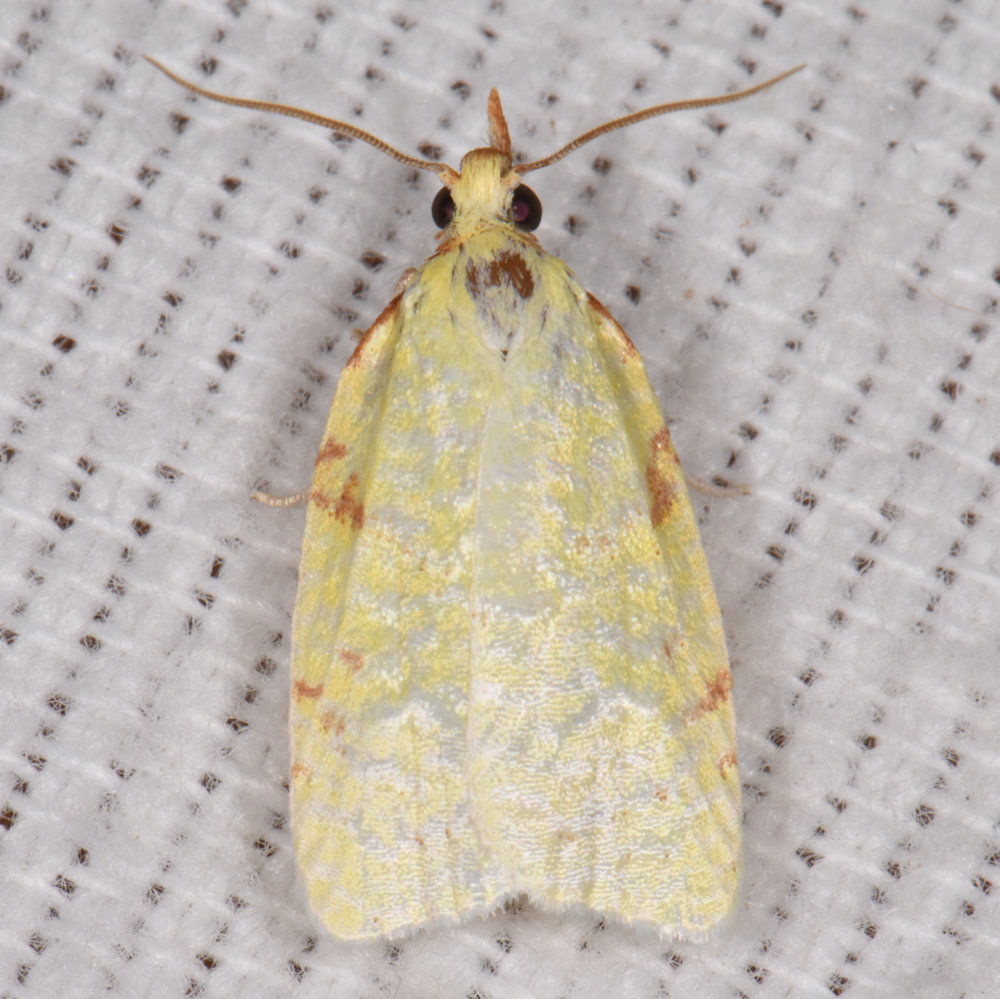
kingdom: Animalia
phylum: Arthropoda
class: Insecta
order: Lepidoptera
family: Tortricidae
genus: Cenopis
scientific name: Cenopis pettitana
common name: Maple-basswood leafroller moth
